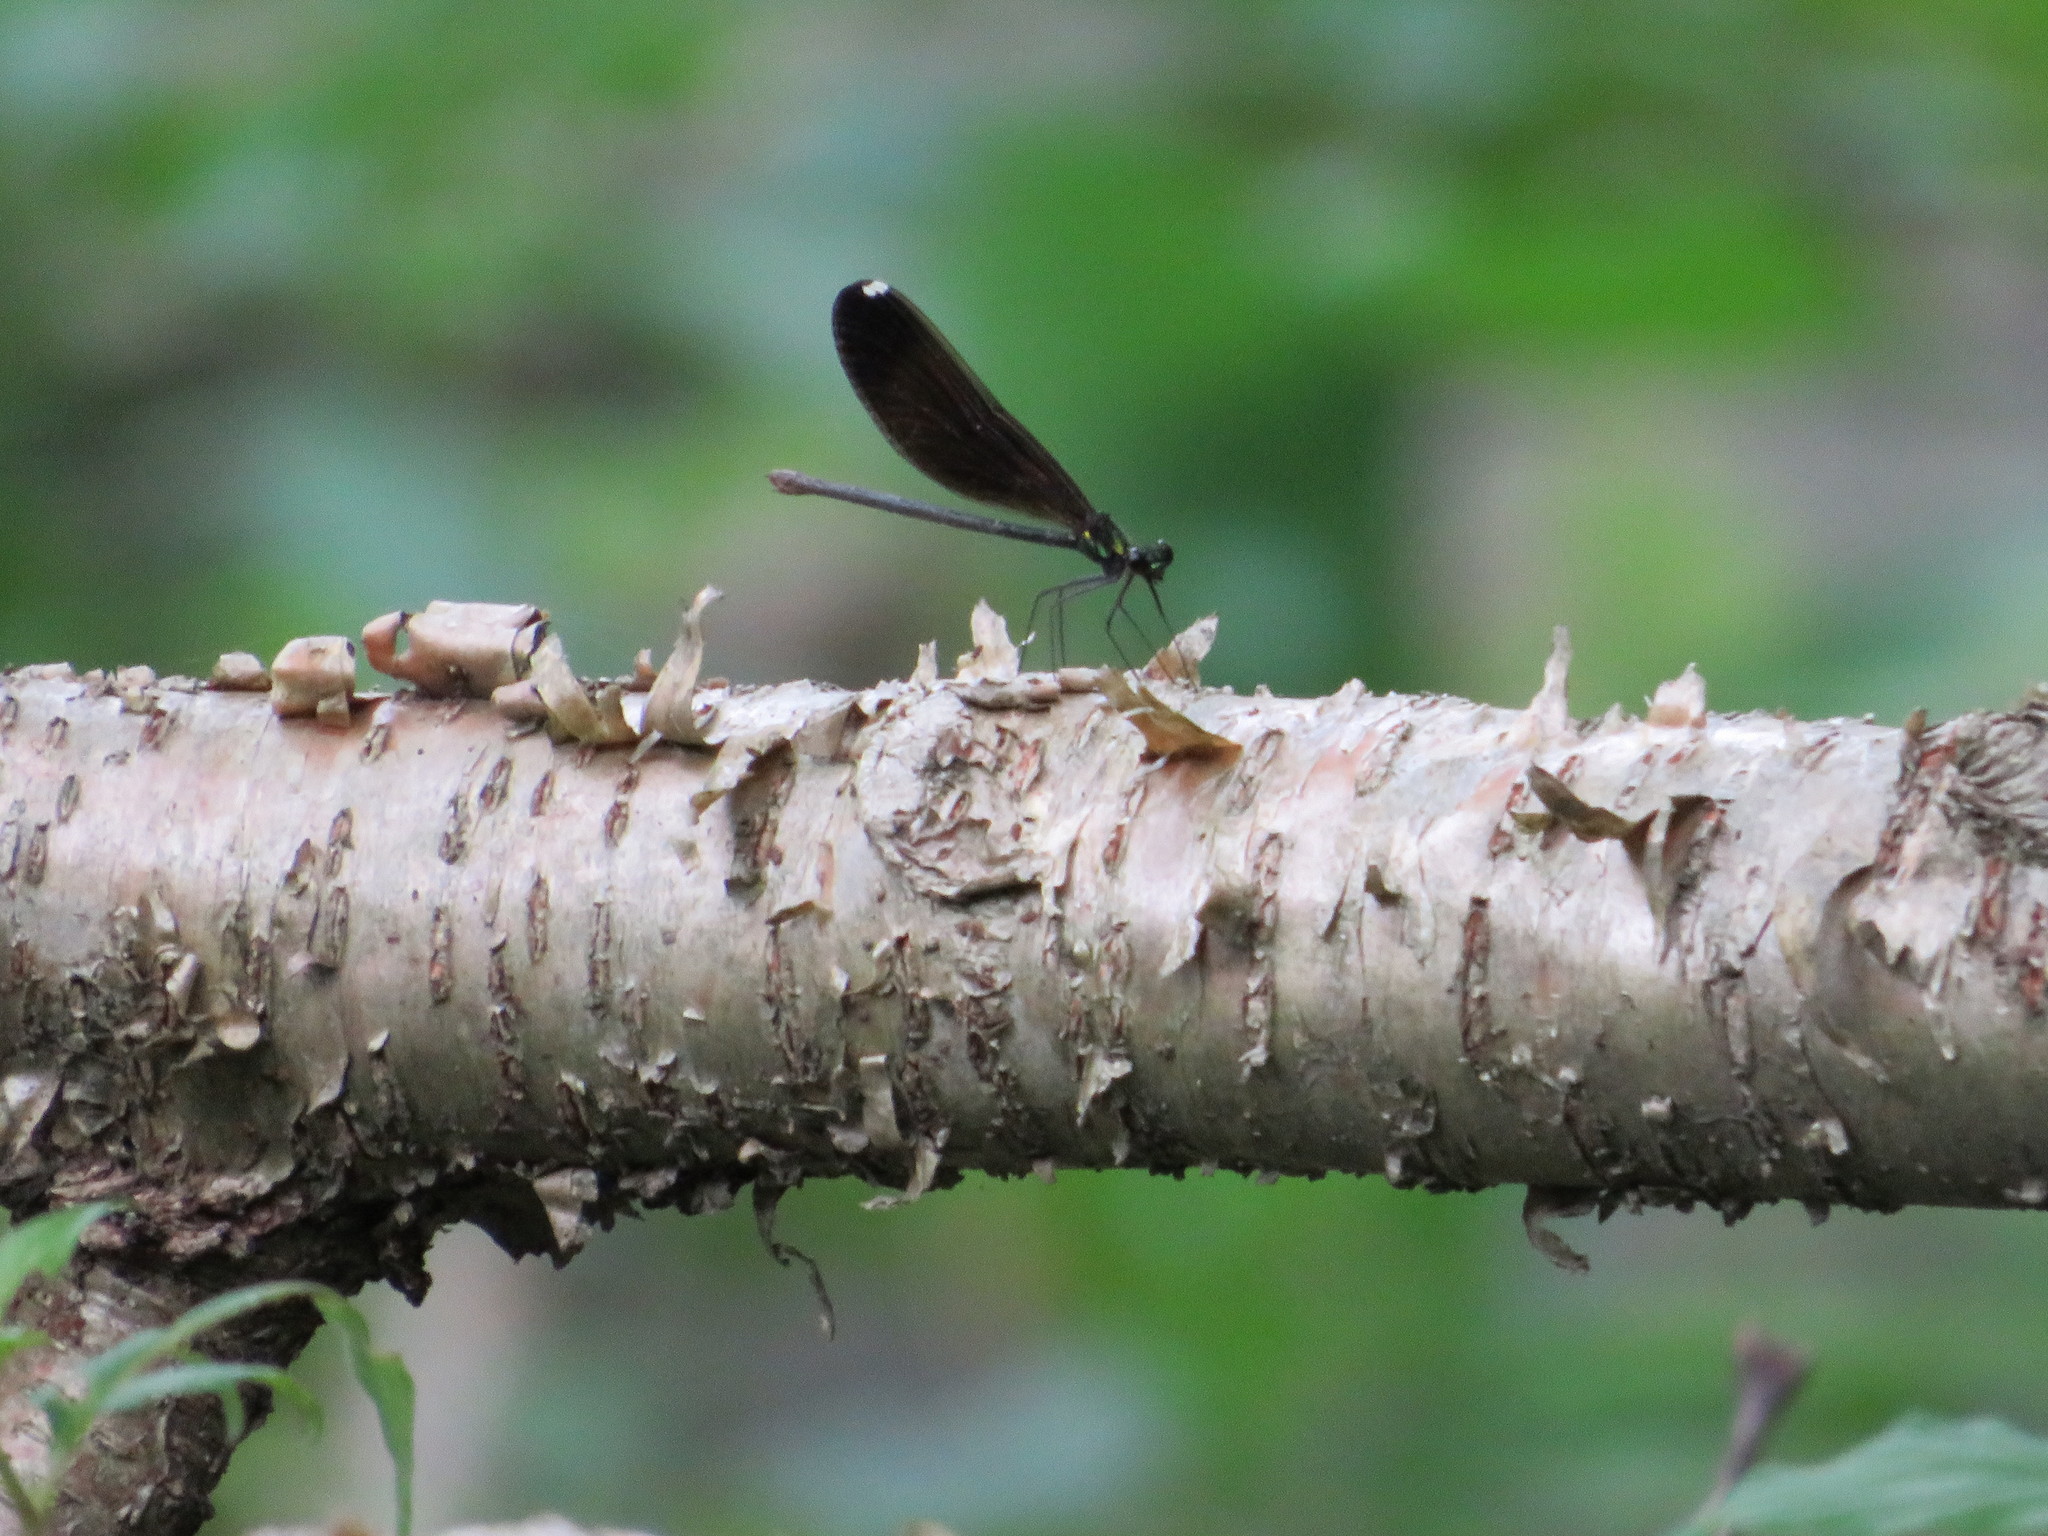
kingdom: Animalia
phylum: Arthropoda
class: Insecta
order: Odonata
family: Calopterygidae
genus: Calopteryx
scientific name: Calopteryx maculata
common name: Ebony jewelwing
